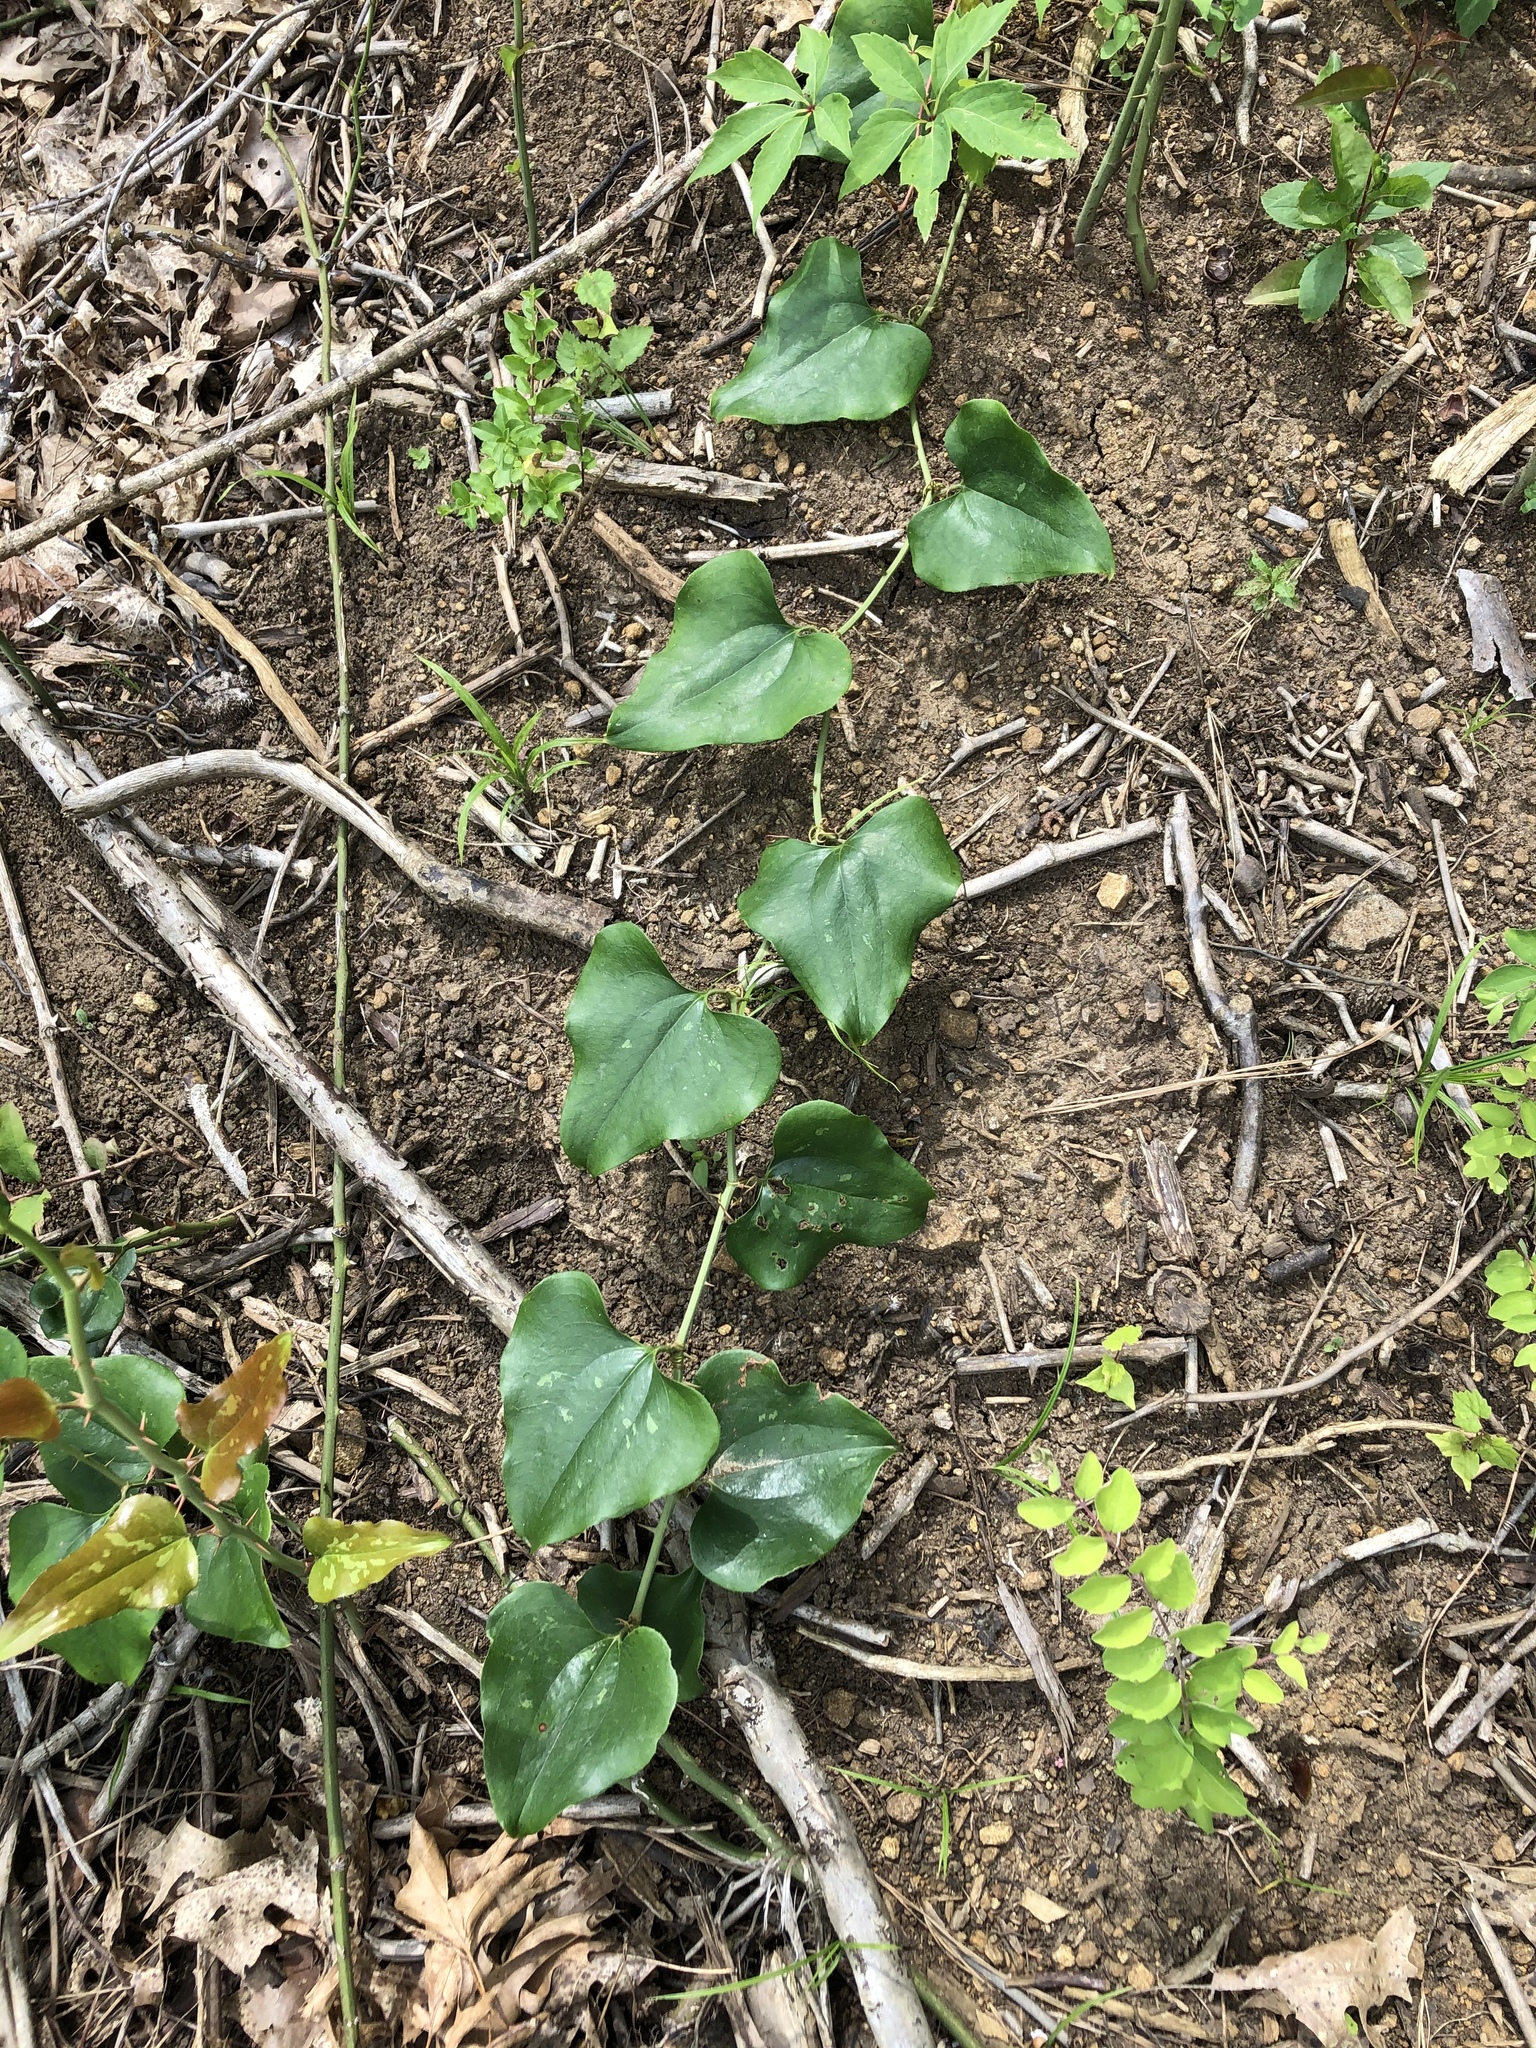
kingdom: Plantae
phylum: Tracheophyta
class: Liliopsida
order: Liliales
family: Smilacaceae
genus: Smilax
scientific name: Smilax bona-nox
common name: Catbrier
